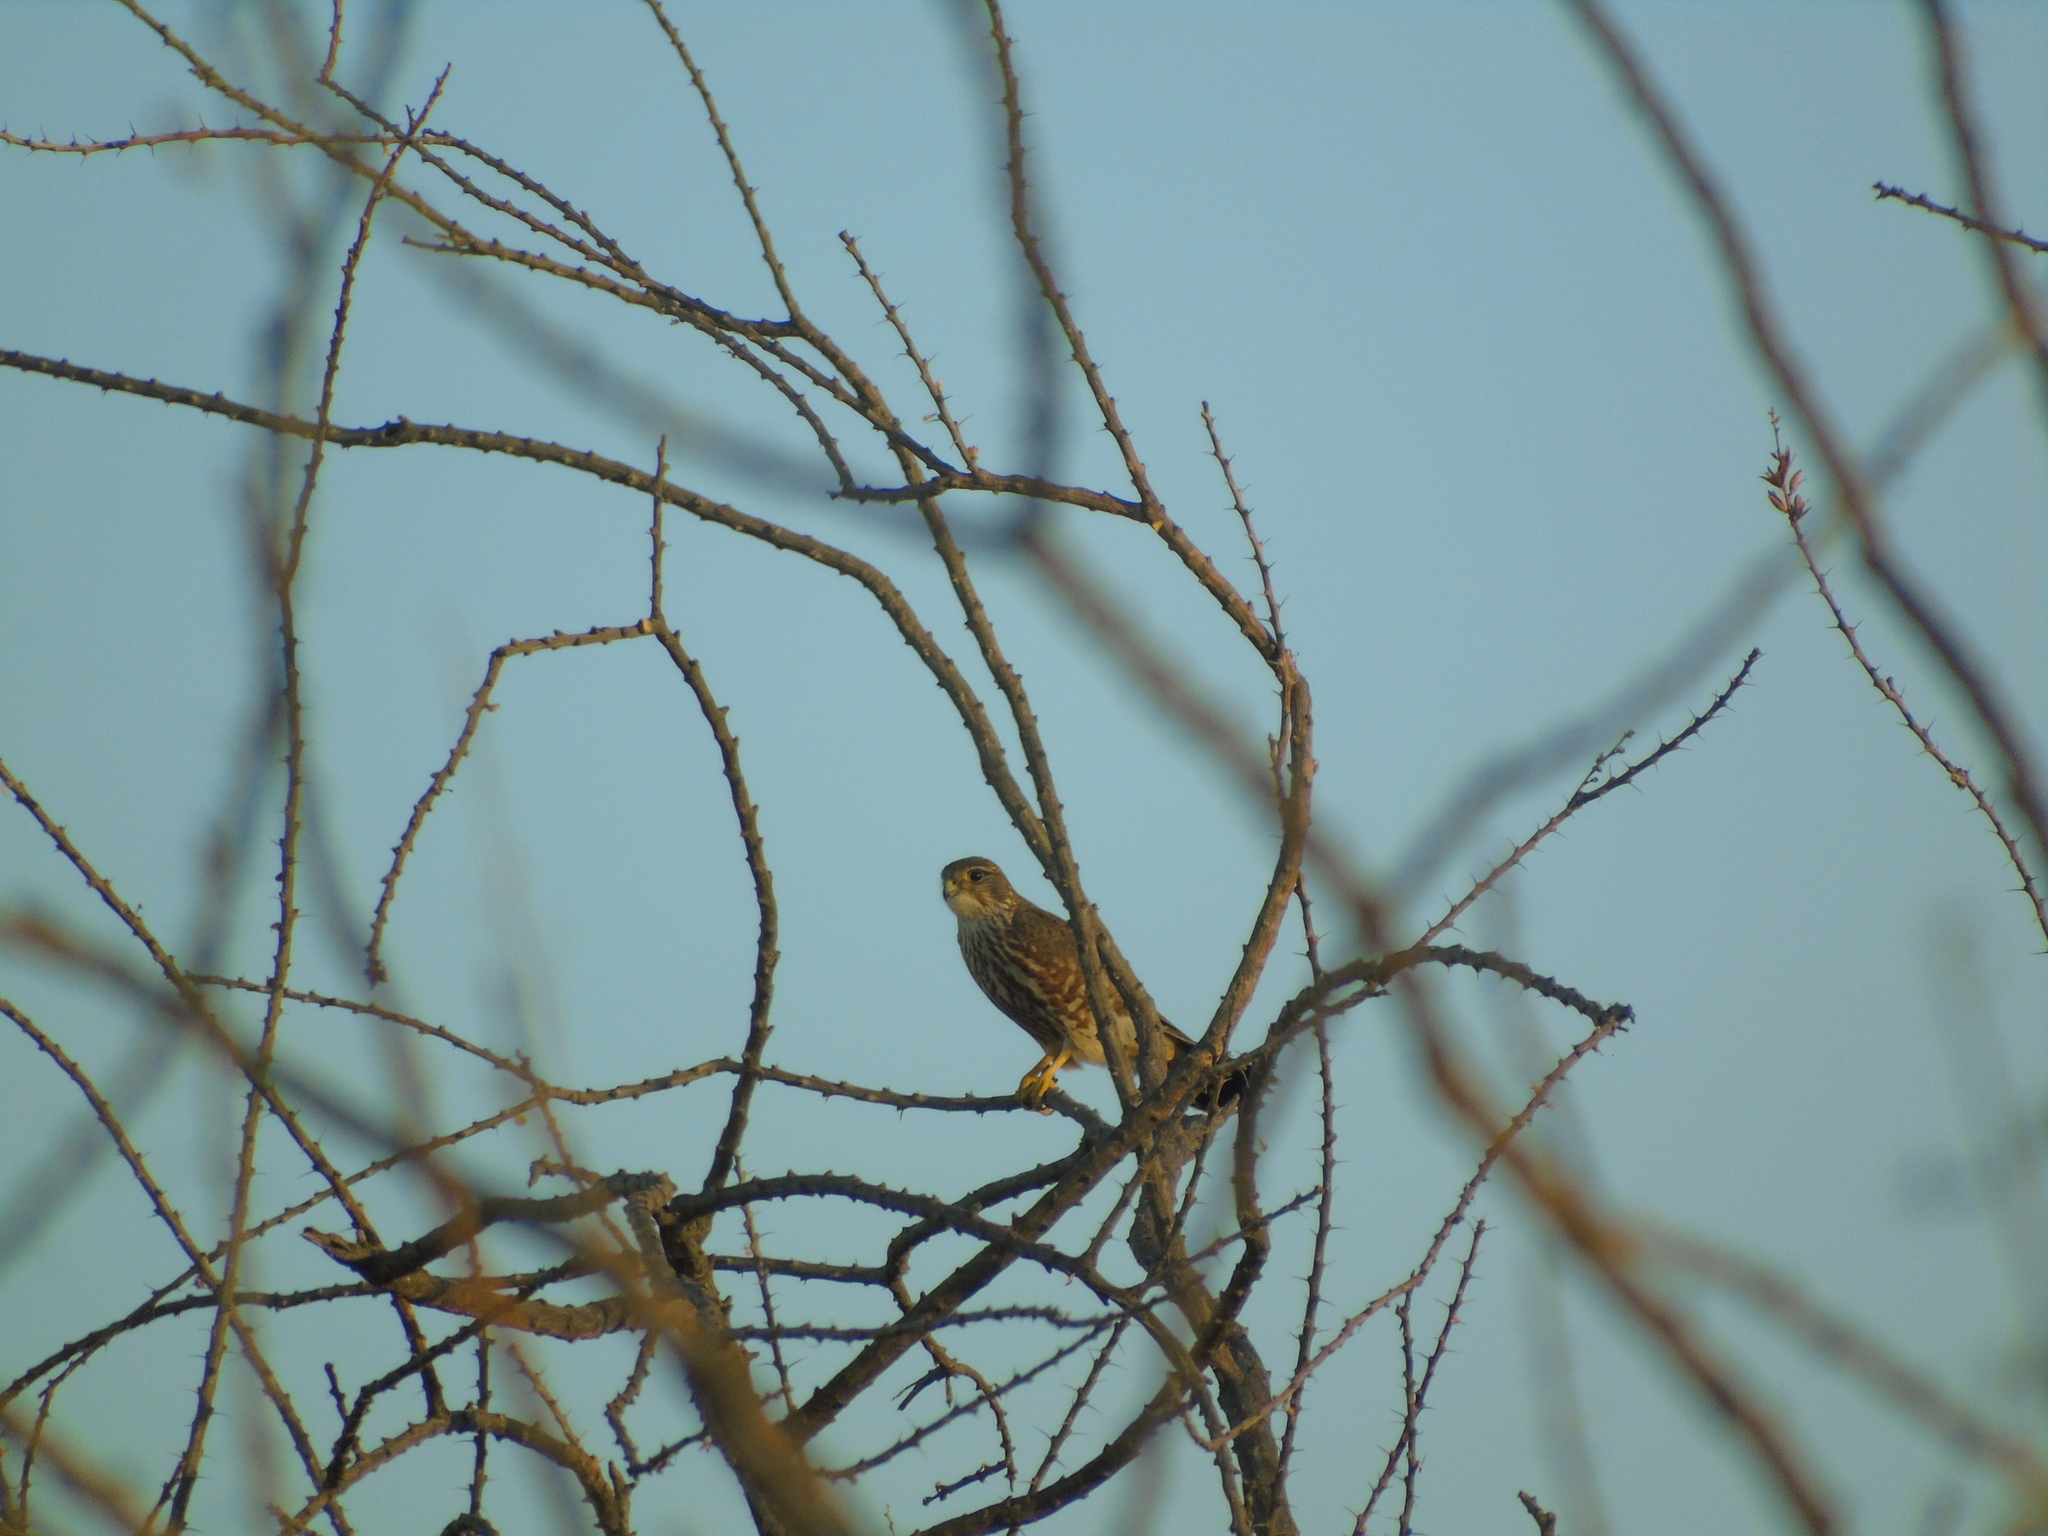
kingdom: Animalia
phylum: Chordata
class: Aves
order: Falconiformes
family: Falconidae
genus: Falco
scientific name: Falco columbarius
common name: Merlin
